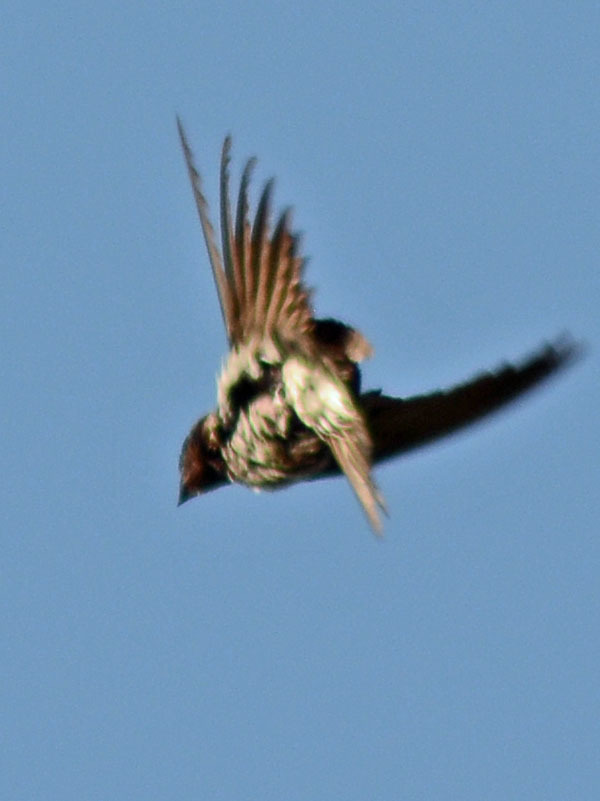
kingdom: Animalia
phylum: Chordata
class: Aves
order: Passeriformes
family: Hirundinidae
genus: Petrochelidon
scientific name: Petrochelidon pyrrhonota
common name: American cliff swallow
